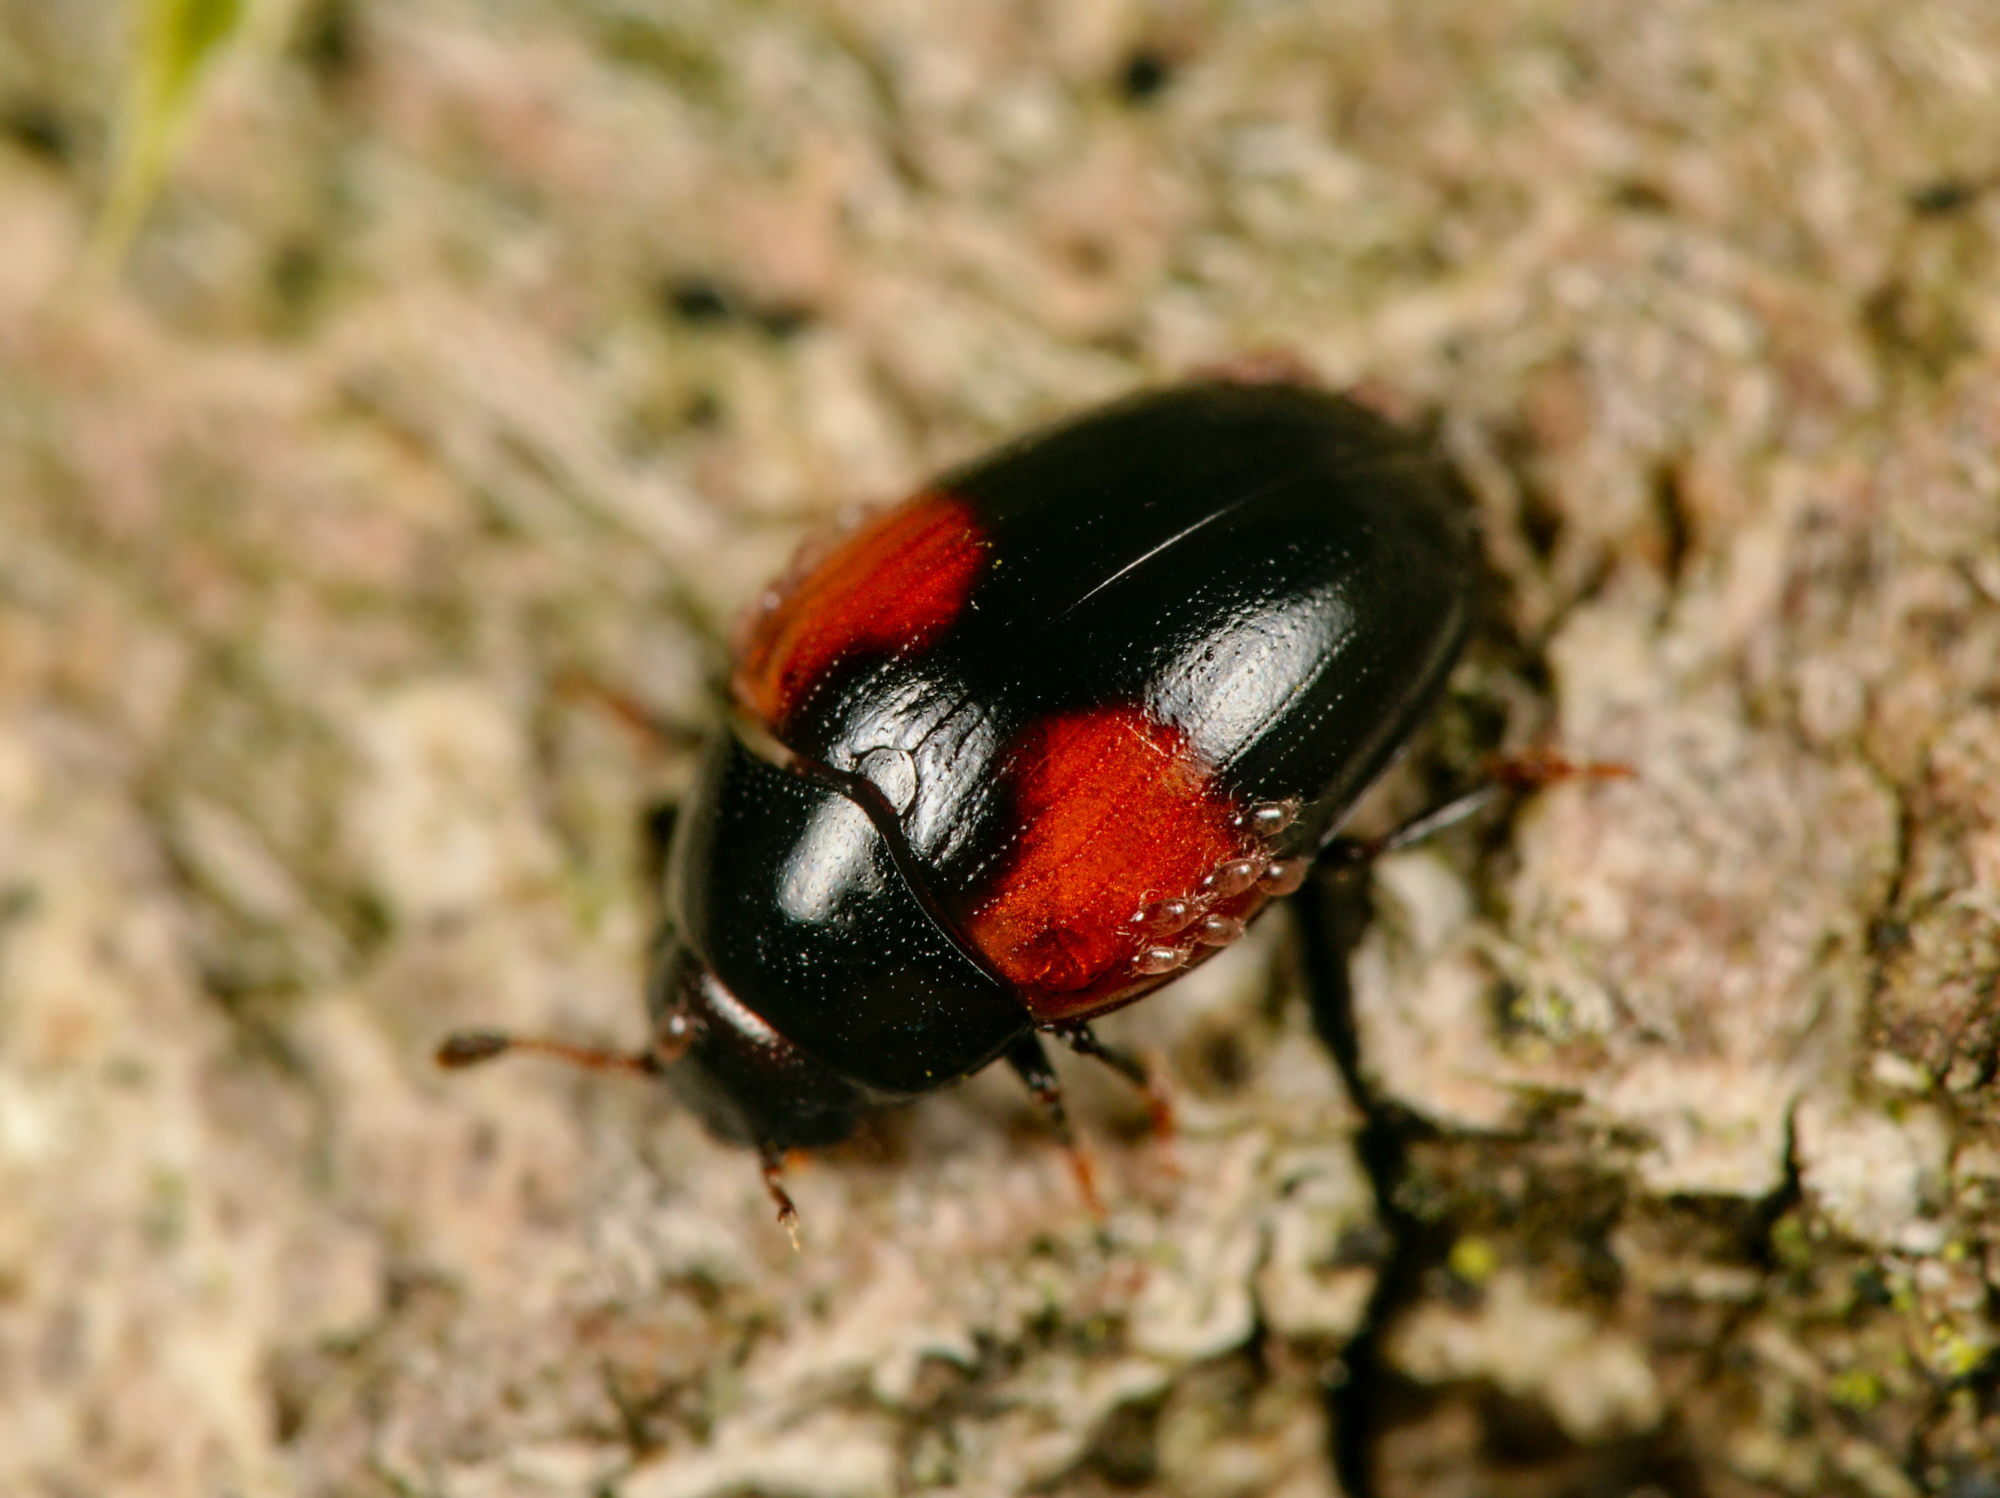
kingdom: Animalia
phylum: Arthropoda
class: Insecta
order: Coleoptera
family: Erotylidae
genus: Tritoma
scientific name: Tritoma bipustulata
